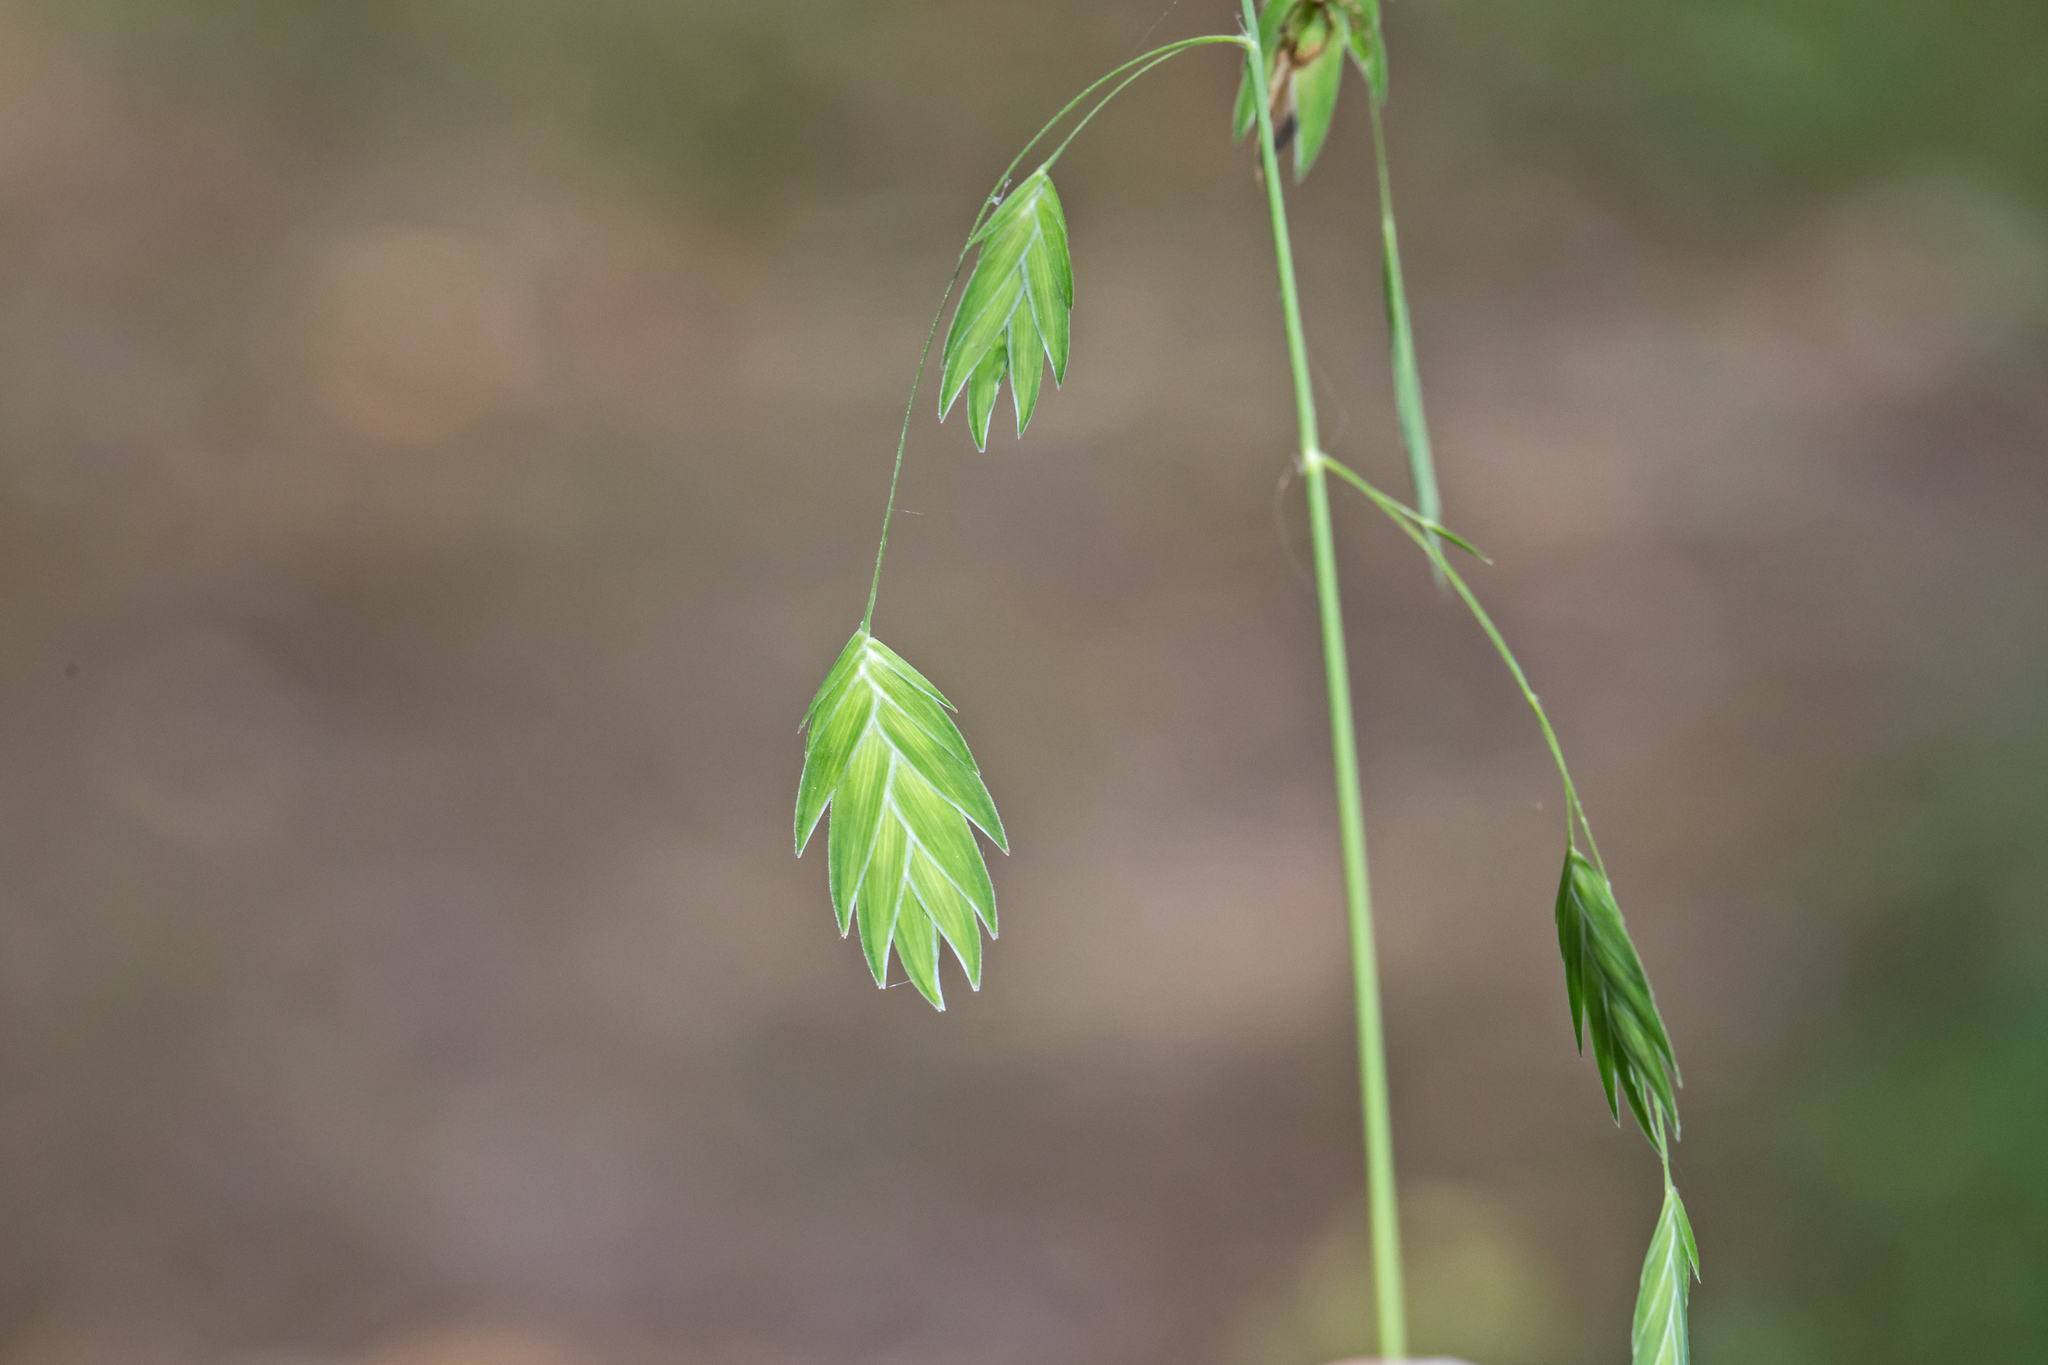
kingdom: Plantae
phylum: Tracheophyta
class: Liliopsida
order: Poales
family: Poaceae
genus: Chasmanthium
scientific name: Chasmanthium latifolium
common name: Broad-leaved chasmanthium
